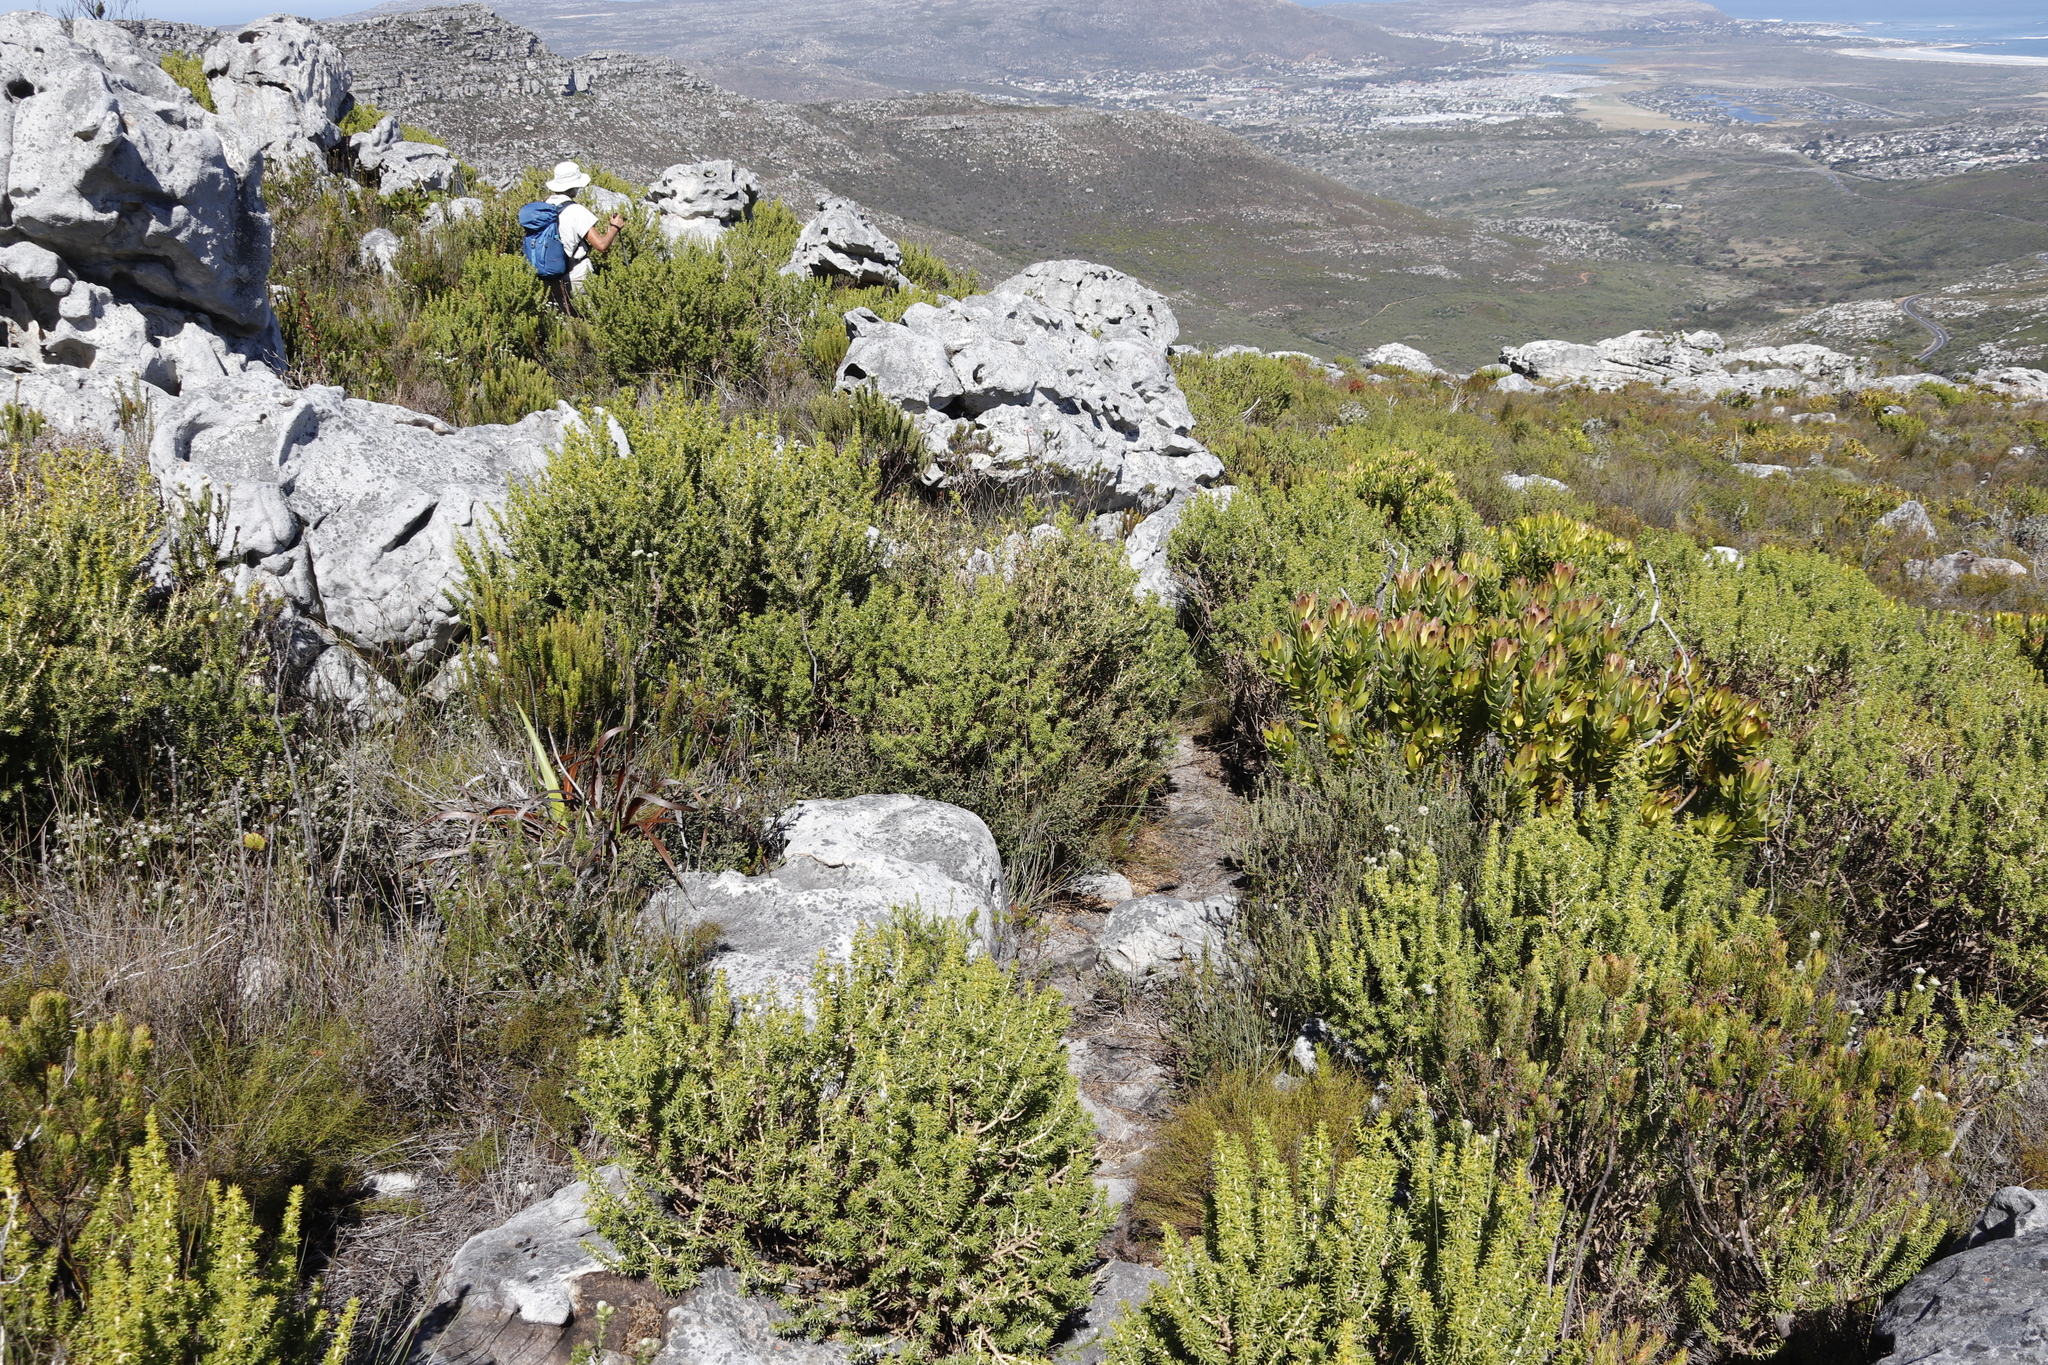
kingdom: Plantae
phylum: Tracheophyta
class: Magnoliopsida
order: Fabales
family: Fabaceae
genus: Aspalathus
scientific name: Aspalathus carnosa
